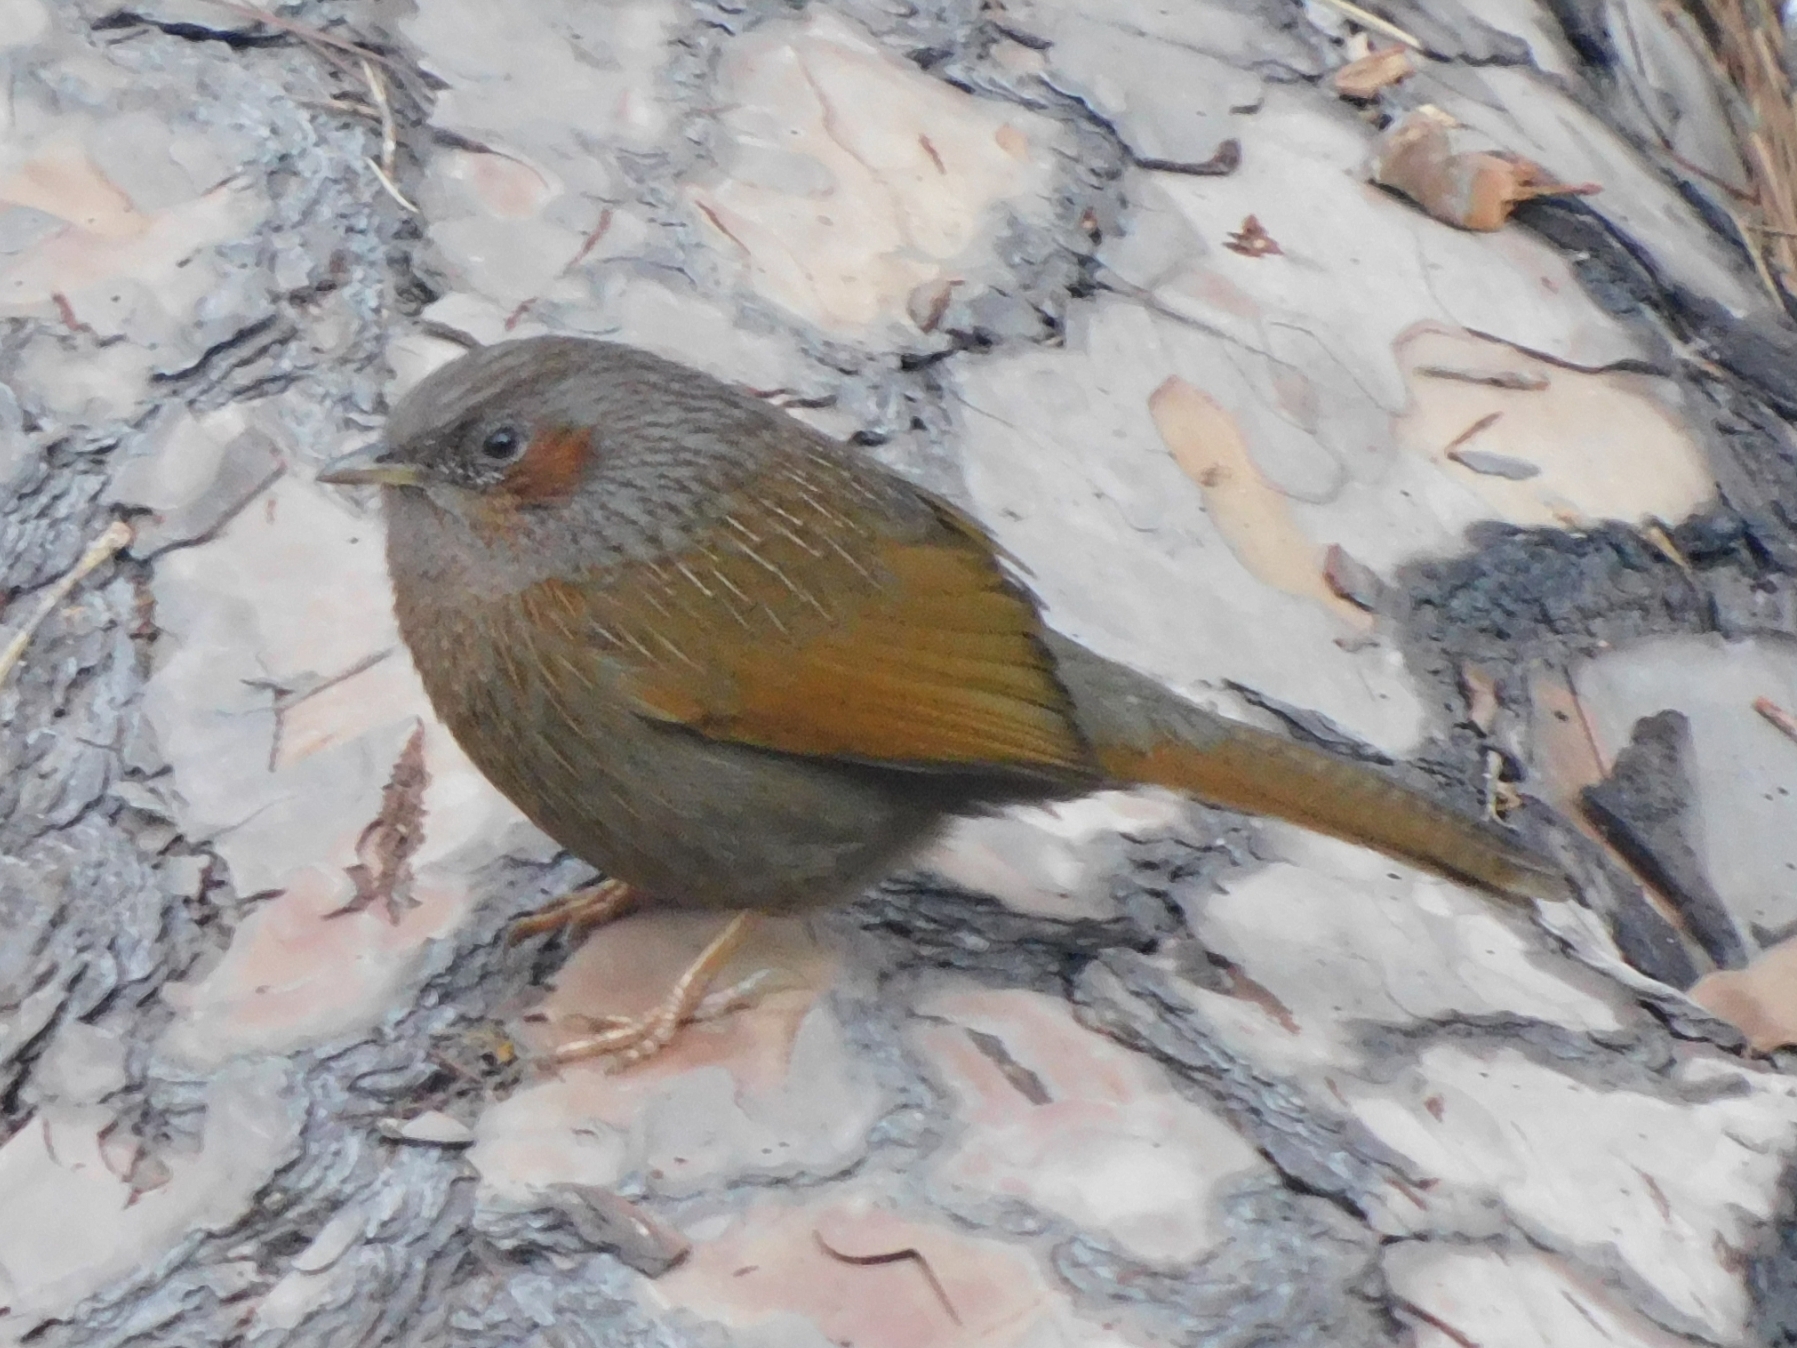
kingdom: Animalia
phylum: Chordata
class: Aves
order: Passeriformes
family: Leiothrichidae
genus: Trochalopteron
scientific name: Trochalopteron lineatum
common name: Streaked laughingthrush
